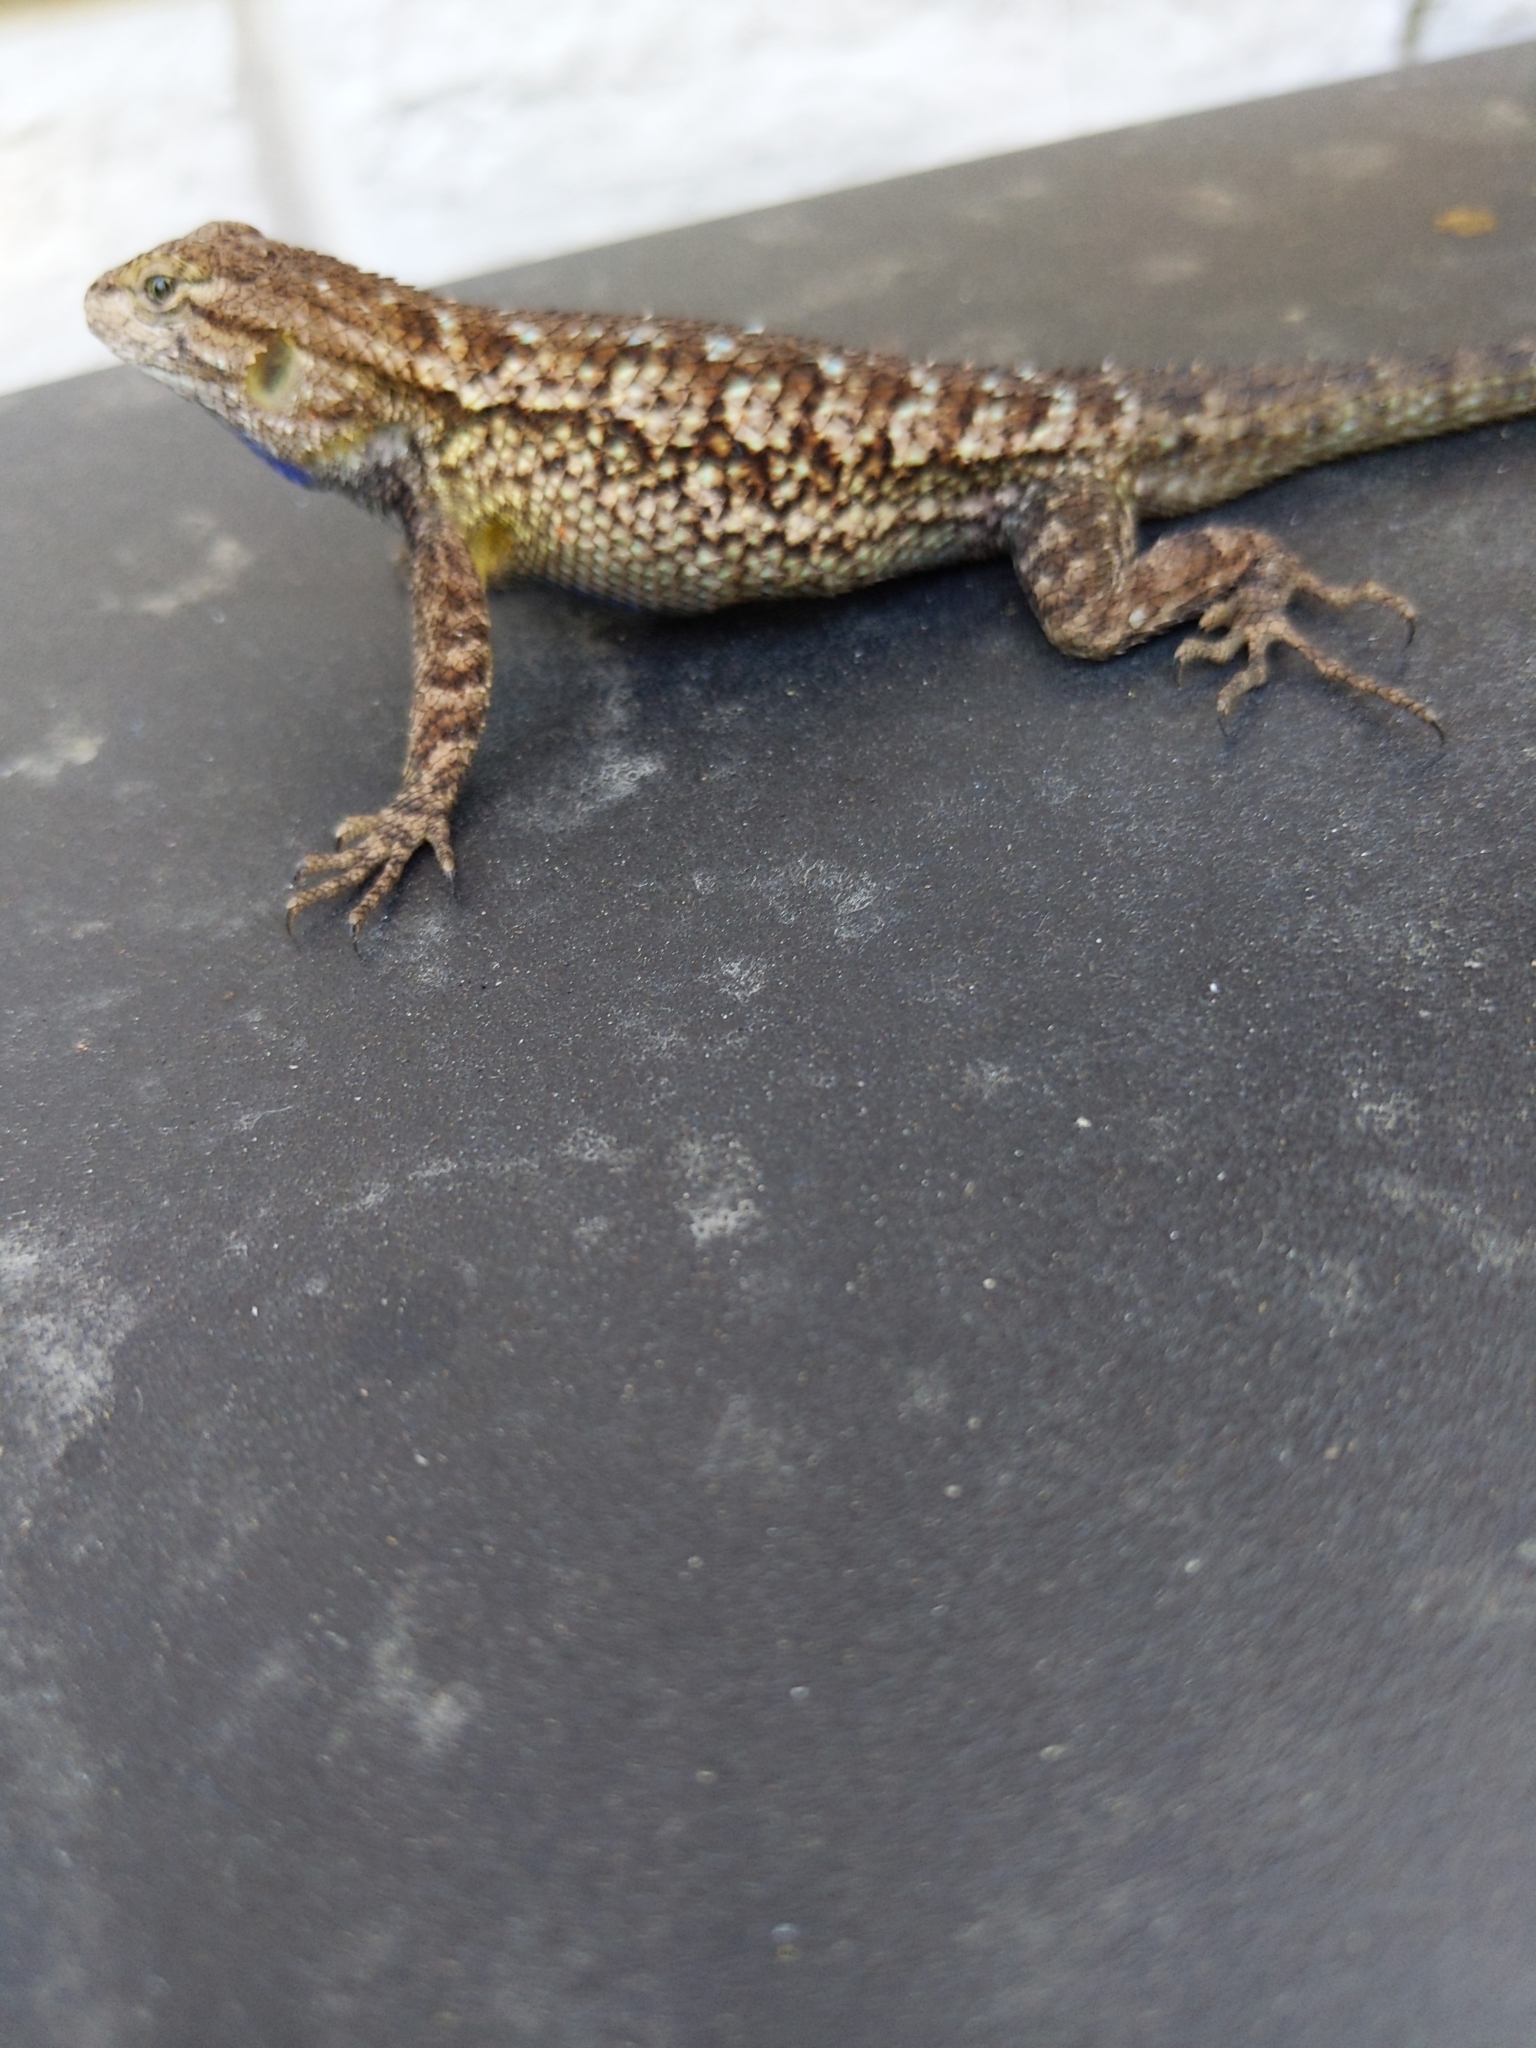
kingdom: Animalia
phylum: Chordata
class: Squamata
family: Phrynosomatidae
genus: Sceloporus
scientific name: Sceloporus occidentalis
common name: Western fence lizard
